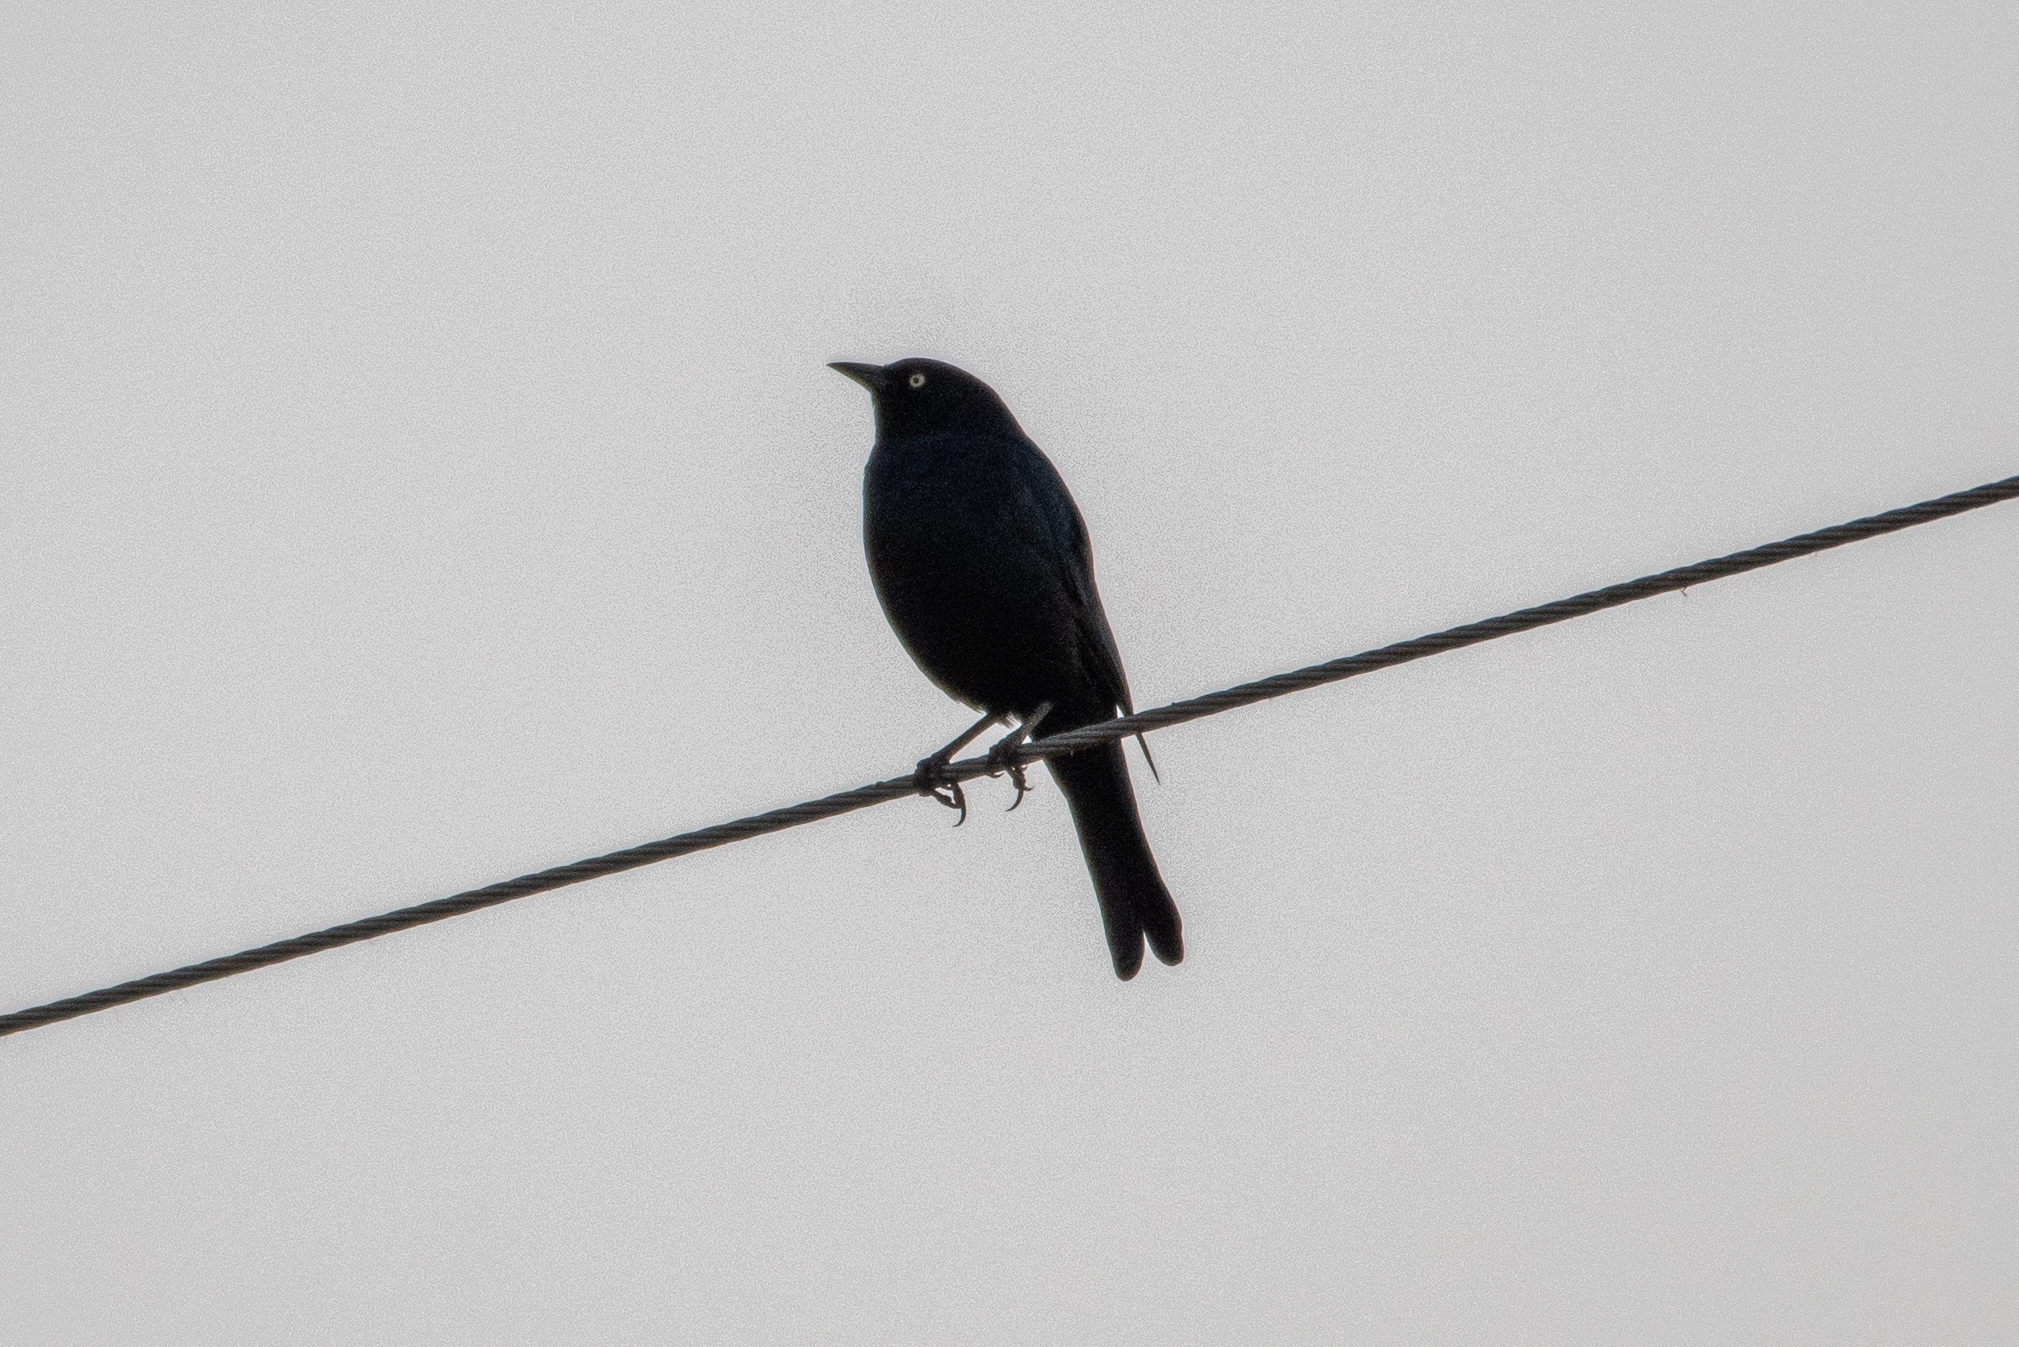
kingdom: Animalia
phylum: Chordata
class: Aves
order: Passeriformes
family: Icteridae
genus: Euphagus
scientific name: Euphagus cyanocephalus
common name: Brewer's blackbird
